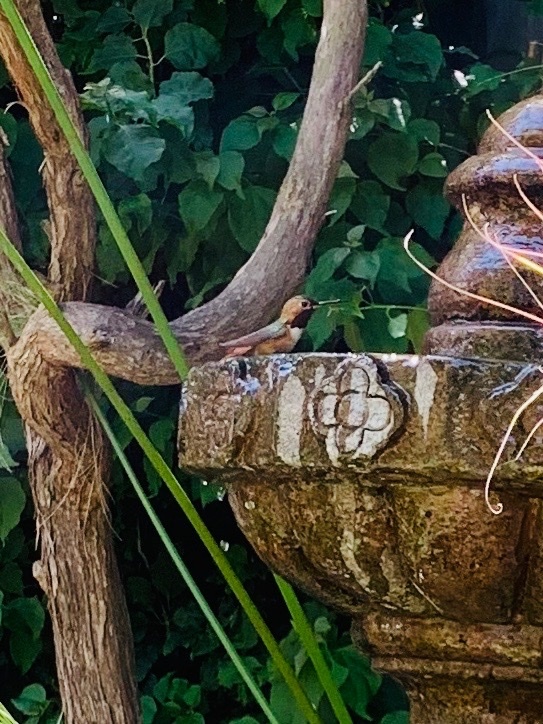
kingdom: Animalia
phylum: Chordata
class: Aves
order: Apodiformes
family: Trochilidae
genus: Selasphorus
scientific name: Selasphorus sasin
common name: Allen's hummingbird
